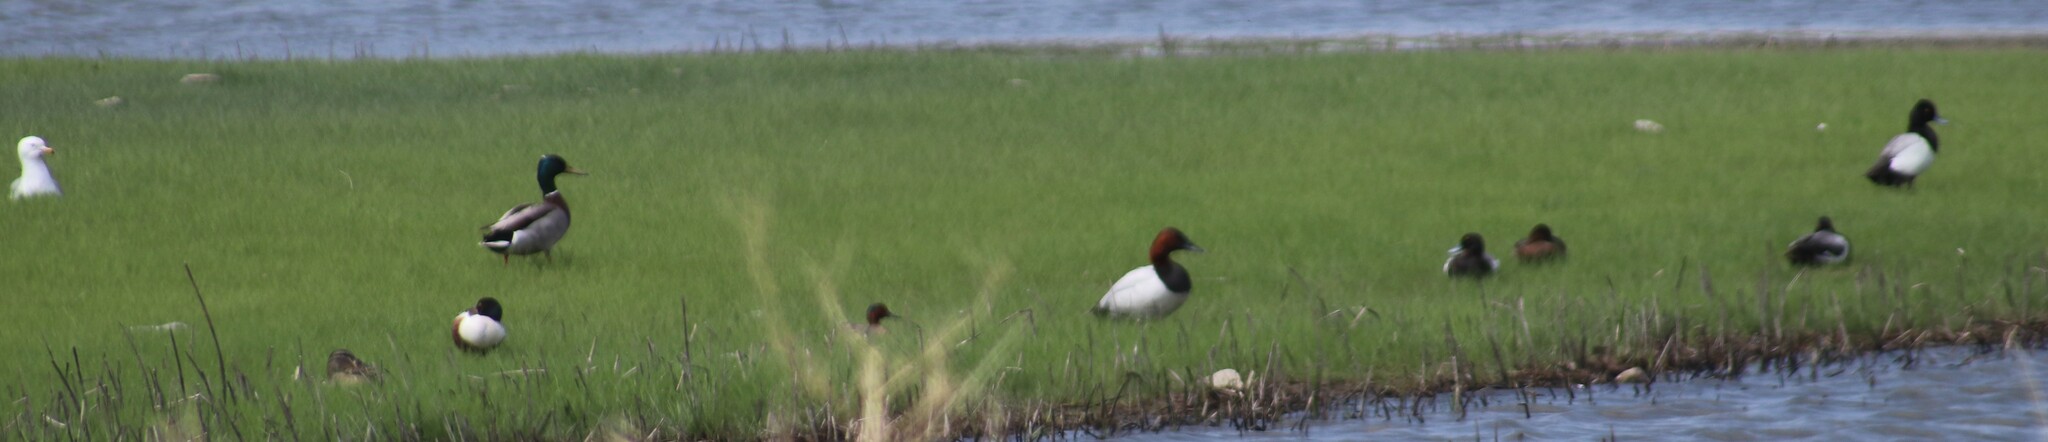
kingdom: Animalia
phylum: Chordata
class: Aves
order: Anseriformes
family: Anatidae
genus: Anas
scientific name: Anas platyrhynchos
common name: Mallard
